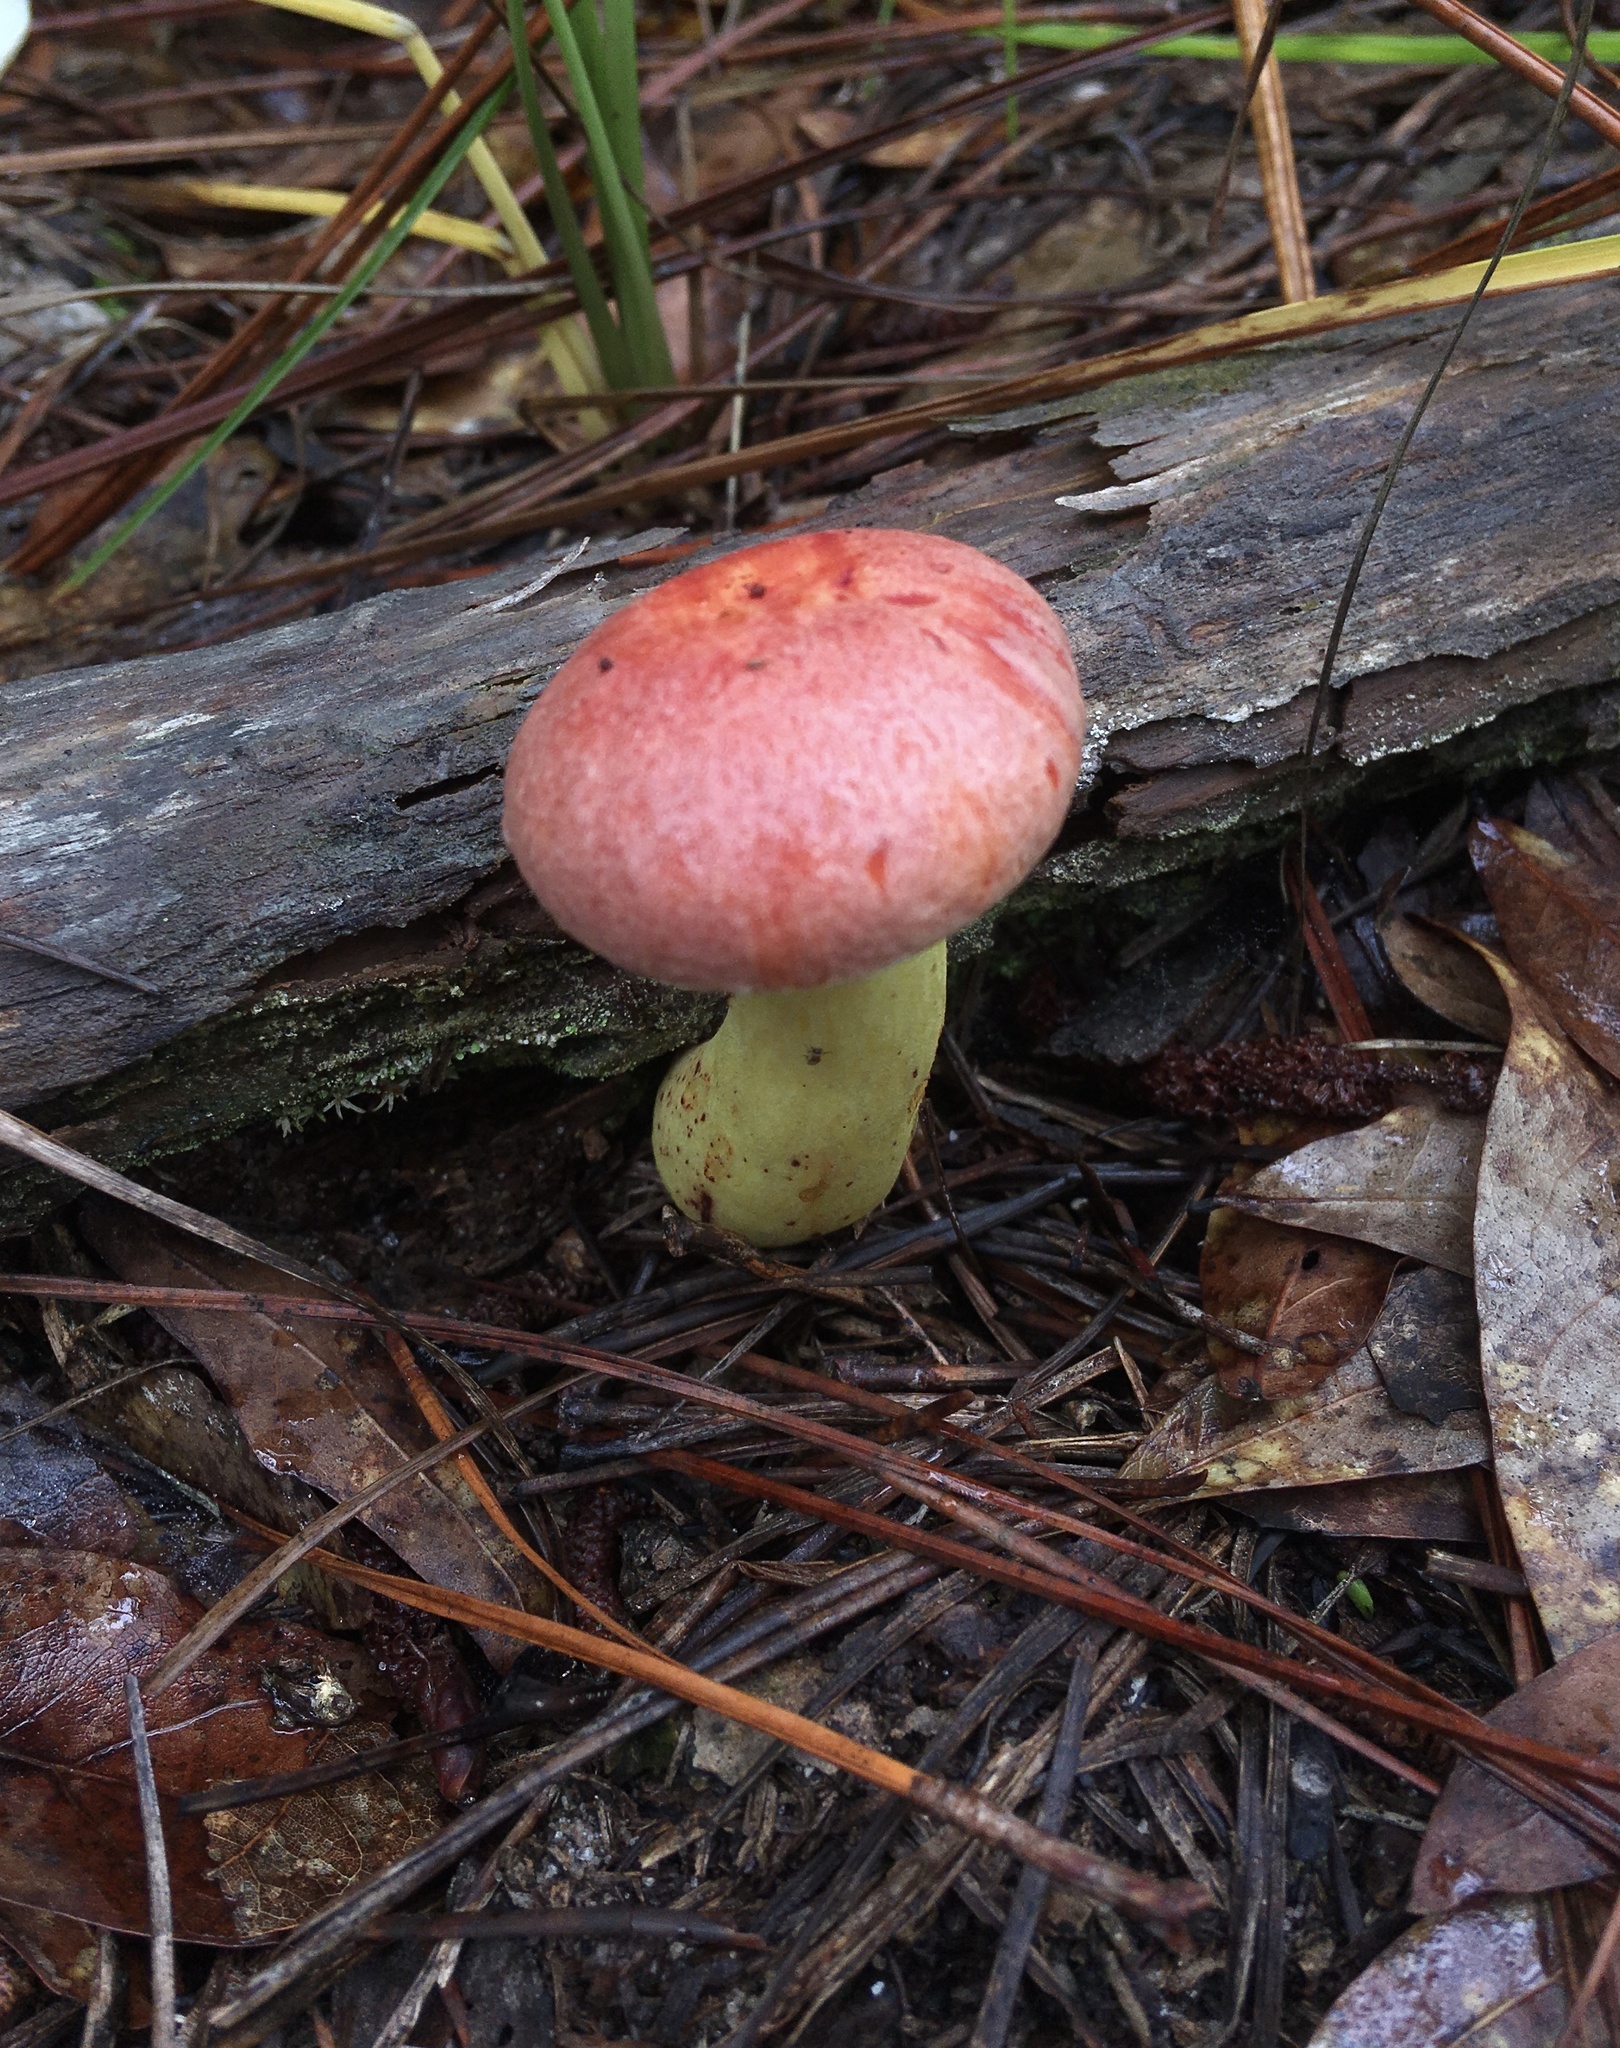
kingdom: Fungi
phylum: Basidiomycota
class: Agaricomycetes
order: Boletales
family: Boletaceae
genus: Boletus
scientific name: Boletus speciosus
